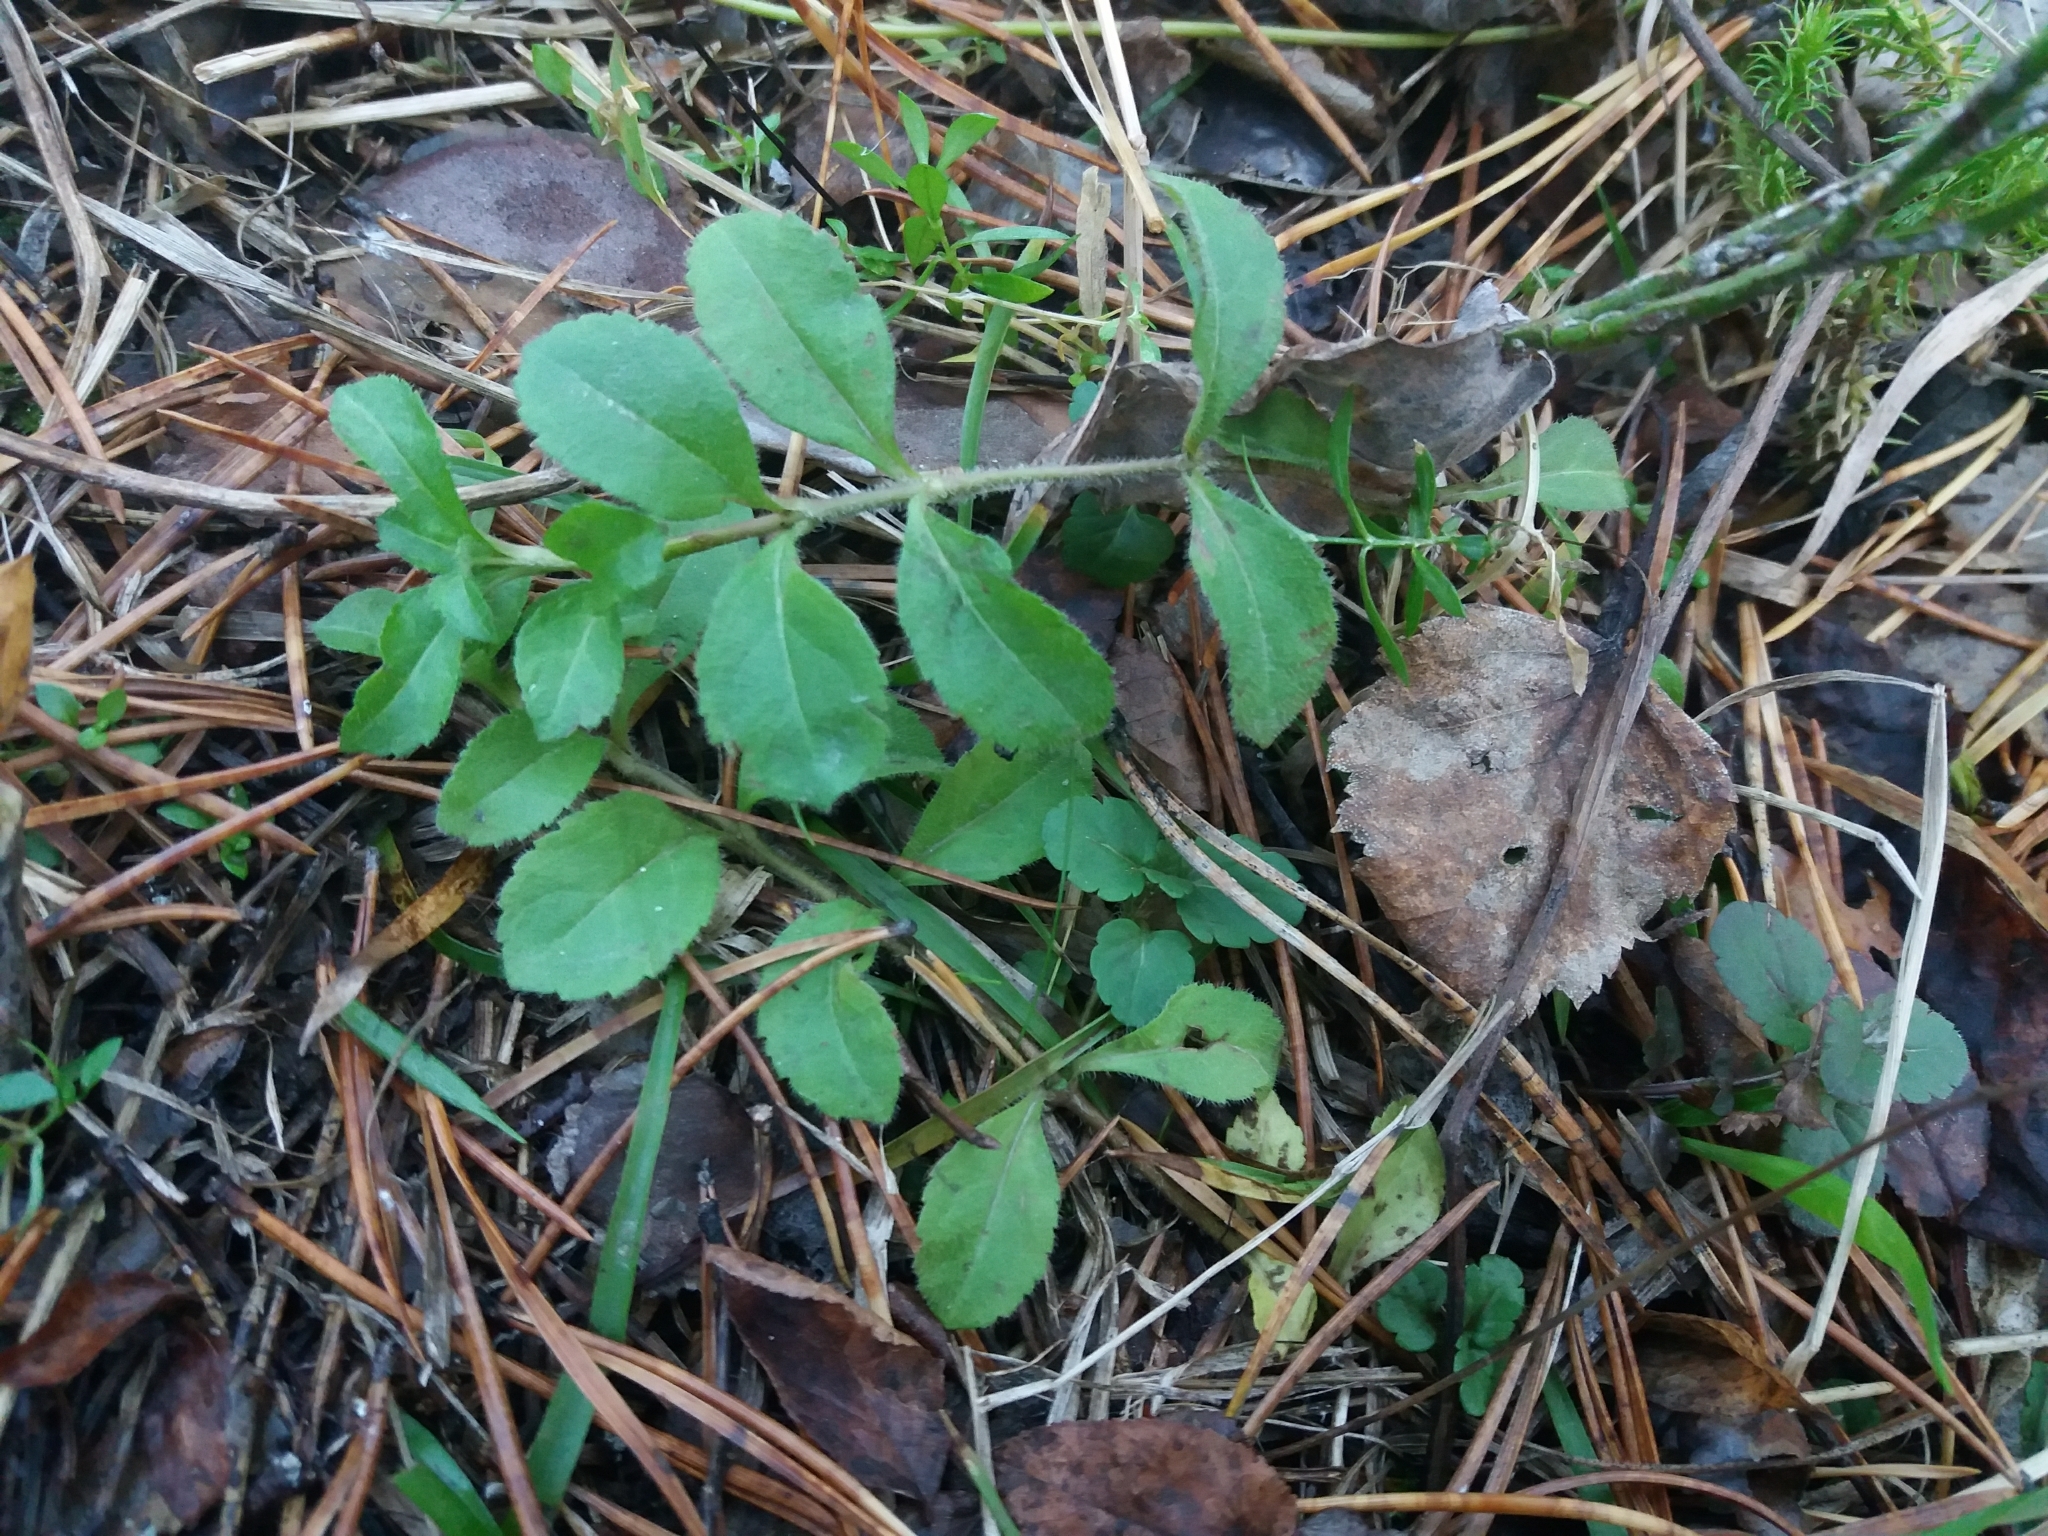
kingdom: Plantae
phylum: Tracheophyta
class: Magnoliopsida
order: Lamiales
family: Plantaginaceae
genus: Veronica
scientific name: Veronica officinalis
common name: Common speedwell
